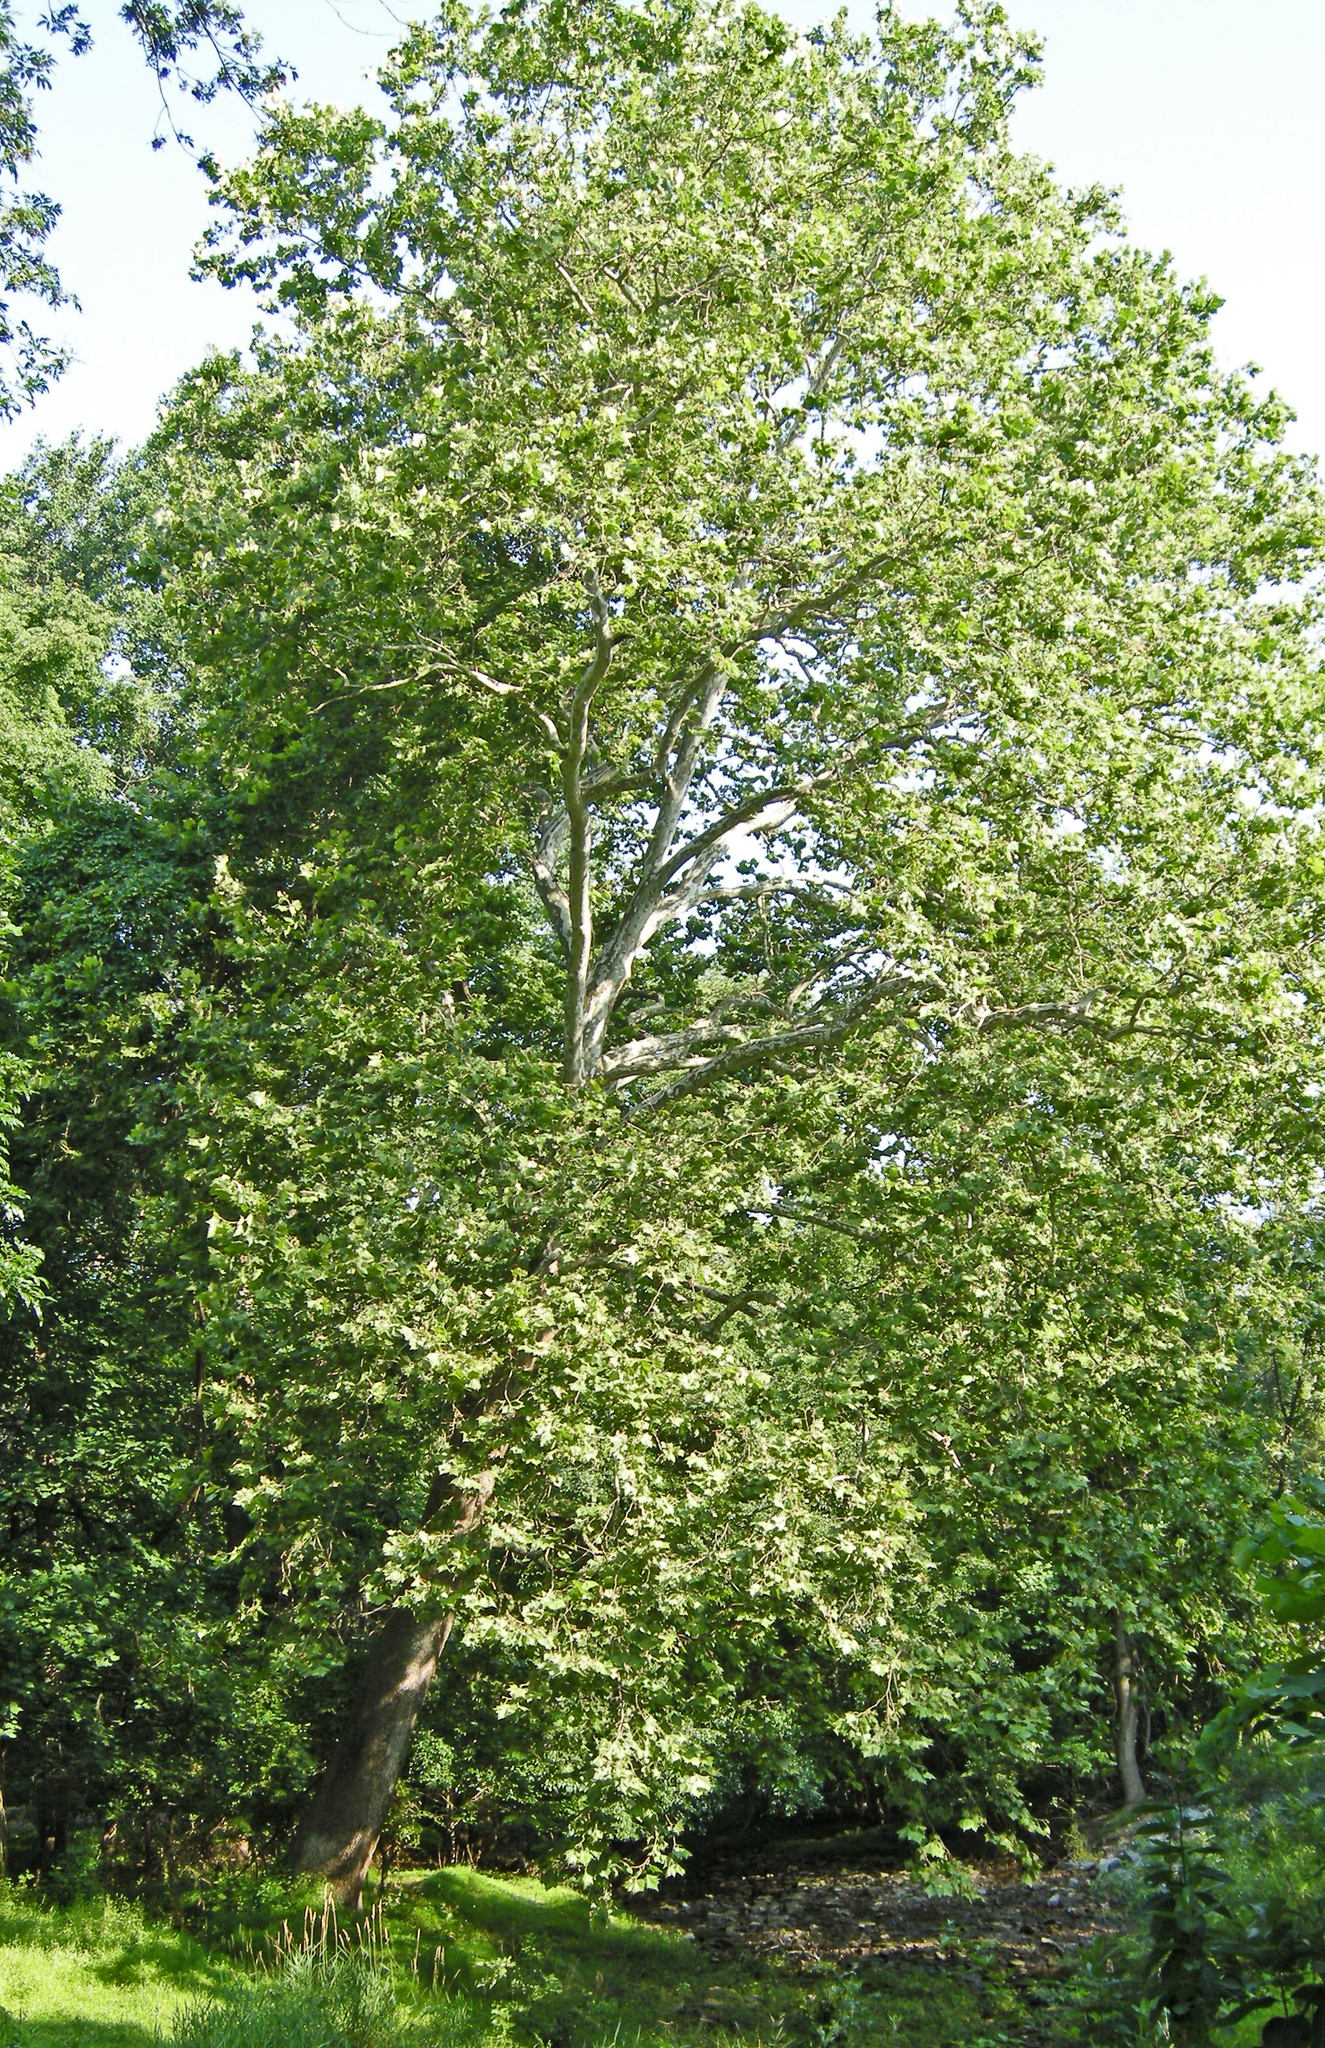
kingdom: Plantae
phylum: Tracheophyta
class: Magnoliopsida
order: Proteales
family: Platanaceae
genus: Platanus
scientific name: Platanus occidentalis
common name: American sycamore
